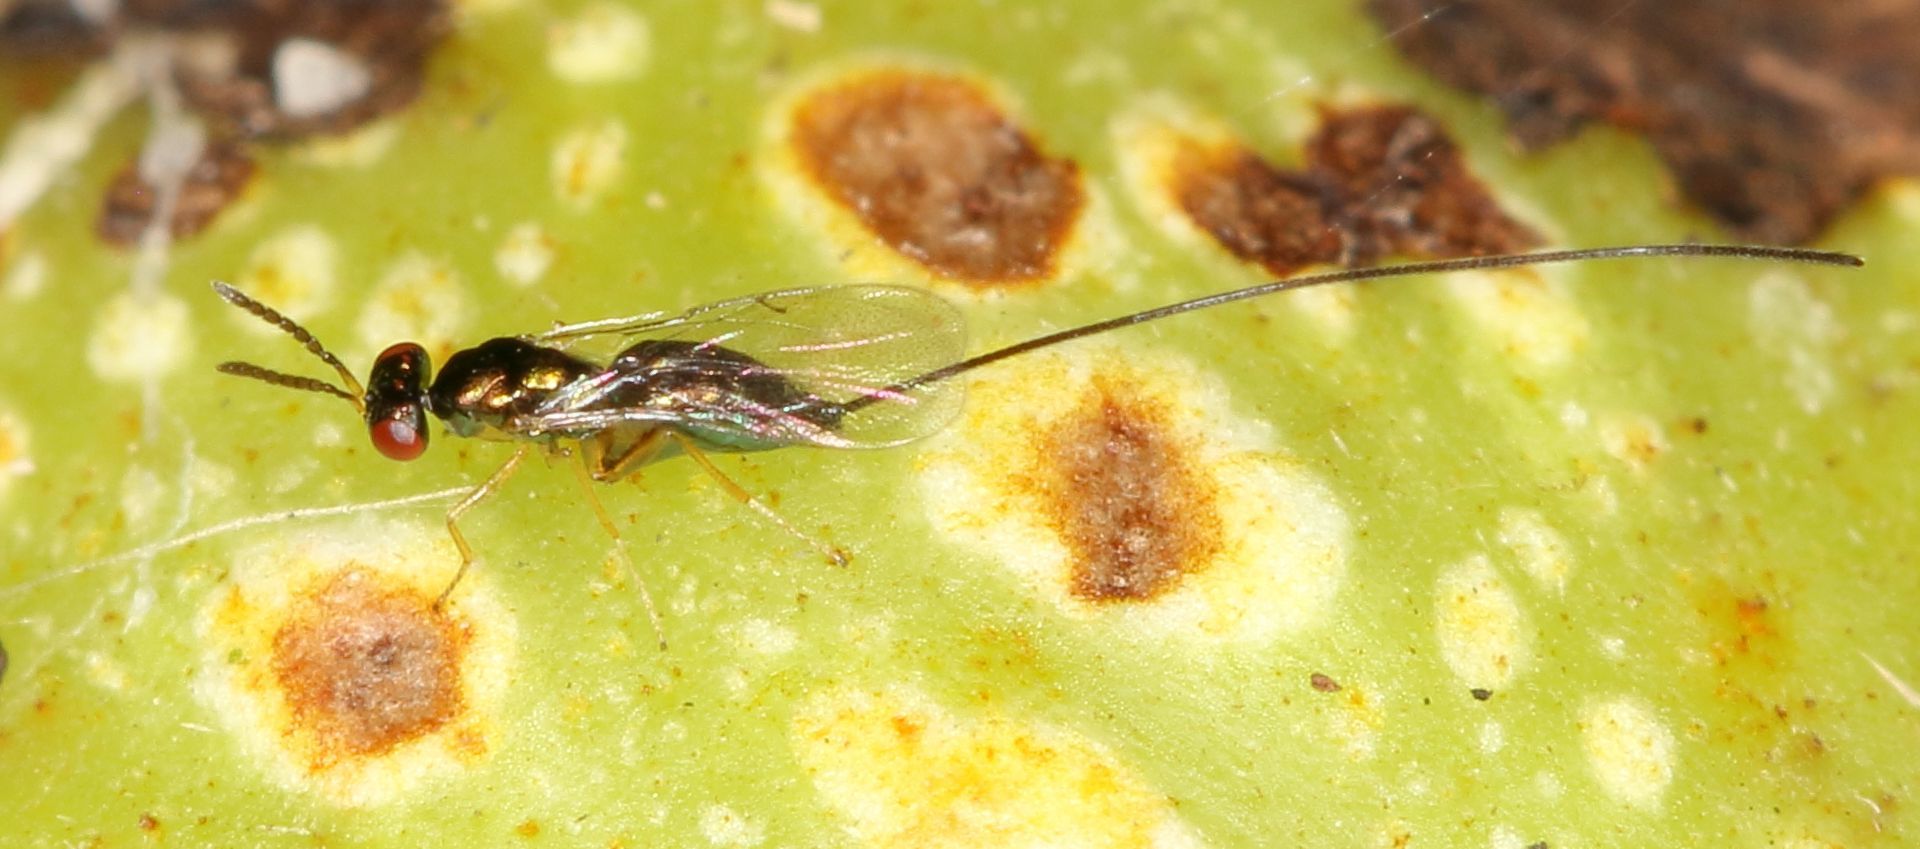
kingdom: Animalia
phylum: Arthropoda
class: Insecta
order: Hymenoptera
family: Agaonidae
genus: Apocrypta
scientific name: Apocrypta guineensis
